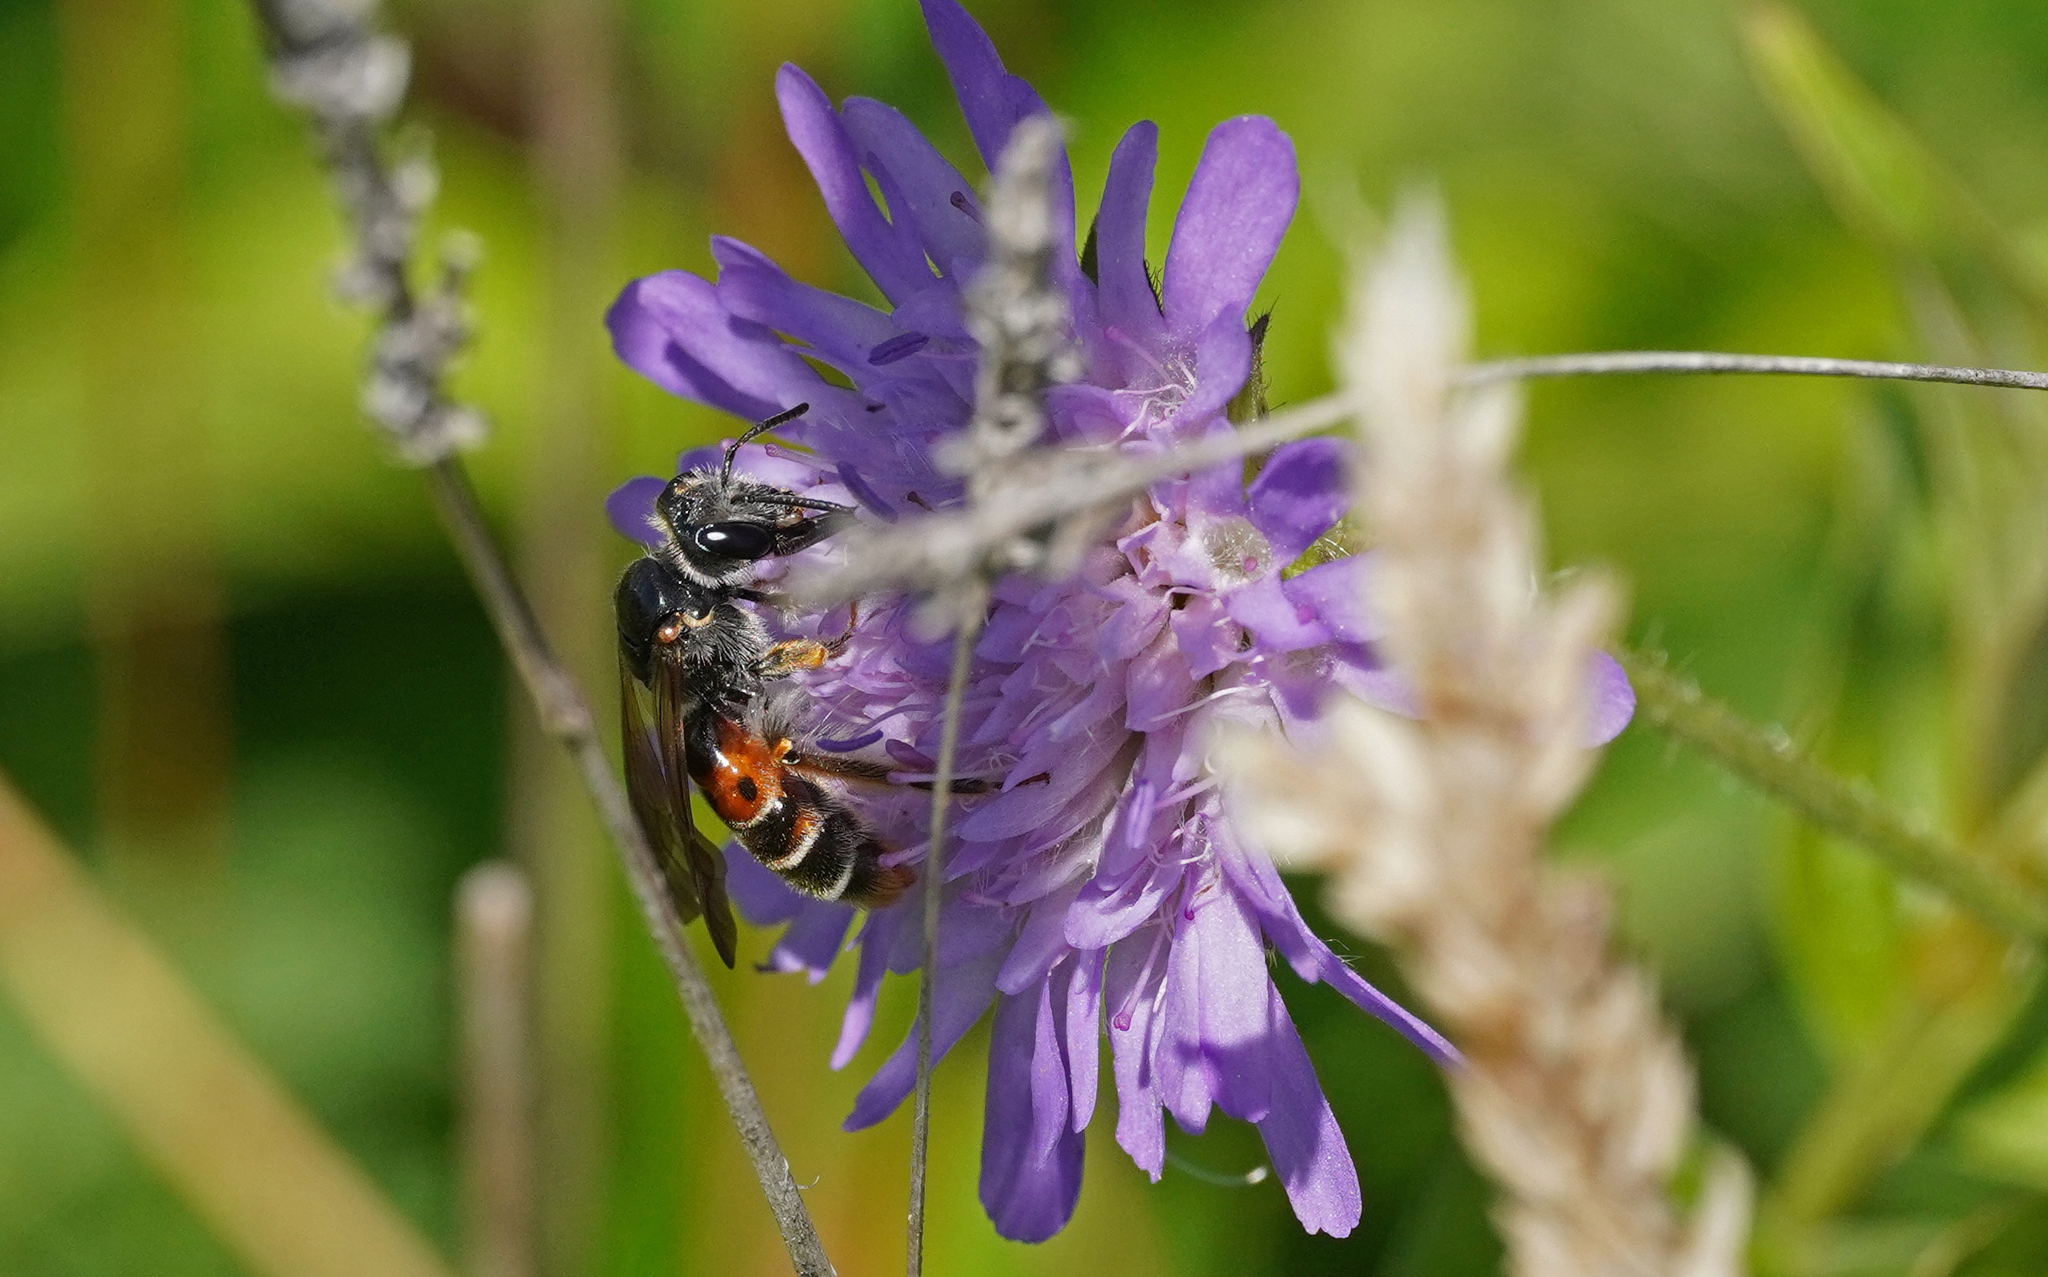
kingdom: Animalia
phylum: Arthropoda
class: Insecta
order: Hymenoptera
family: Andrenidae
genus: Andrena
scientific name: Andrena hattorfiana
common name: Large scabious mining bee
